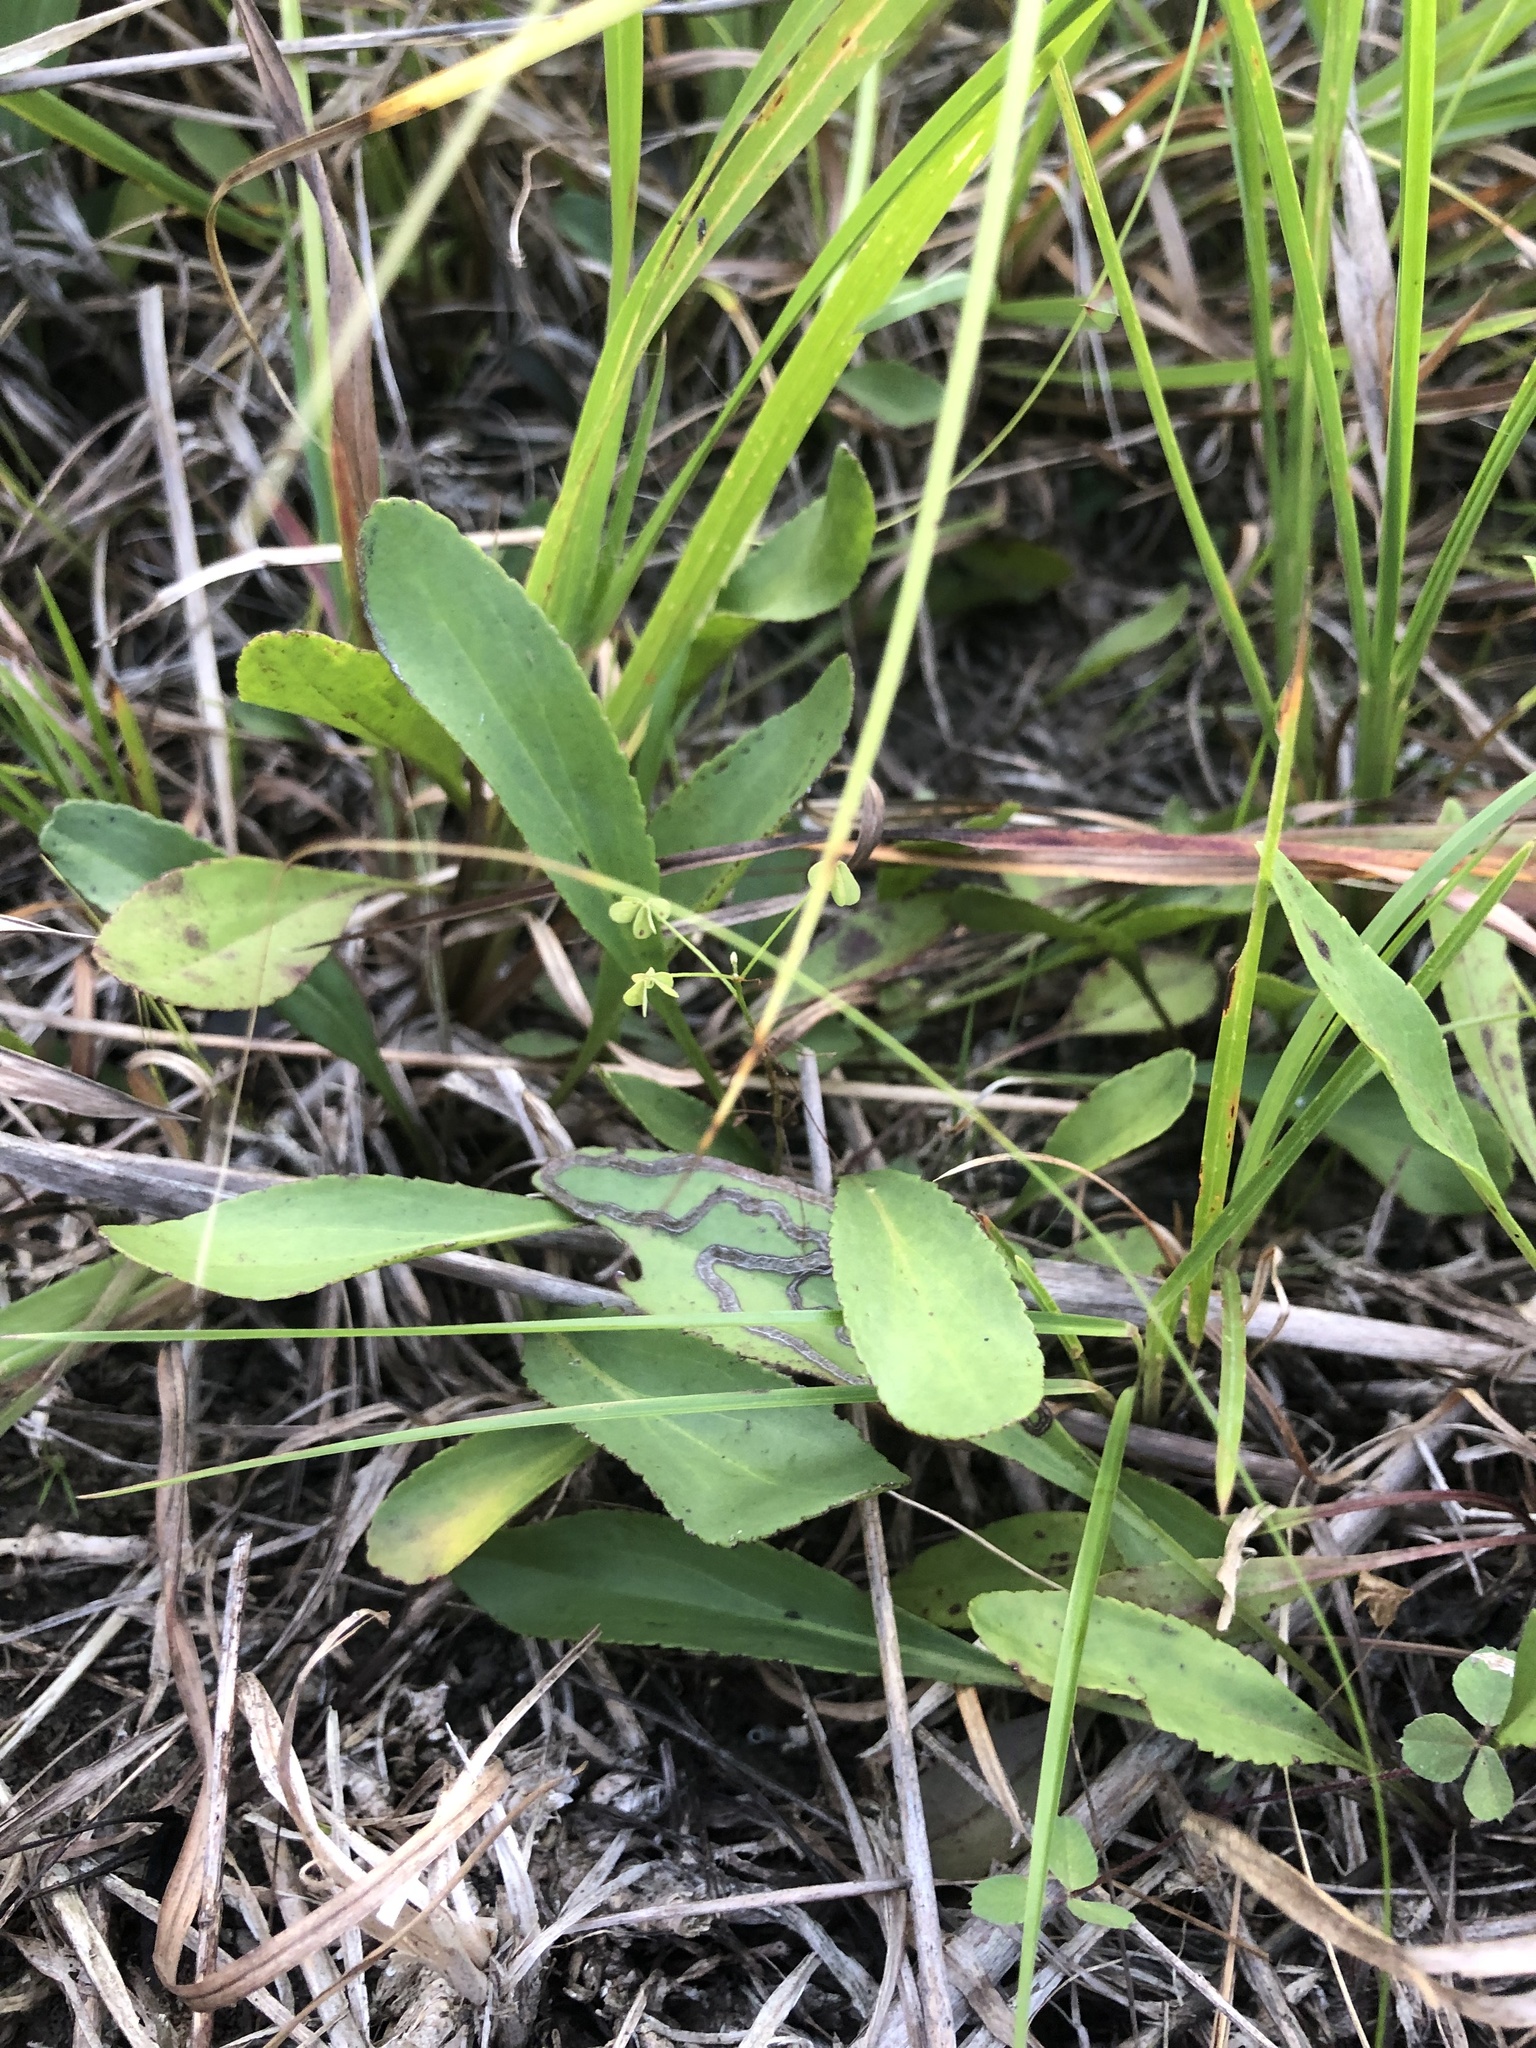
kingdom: Plantae
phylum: Tracheophyta
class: Magnoliopsida
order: Asterales
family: Asteraceae
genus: Packera
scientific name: Packera paupercula
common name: Balsam groundsel
